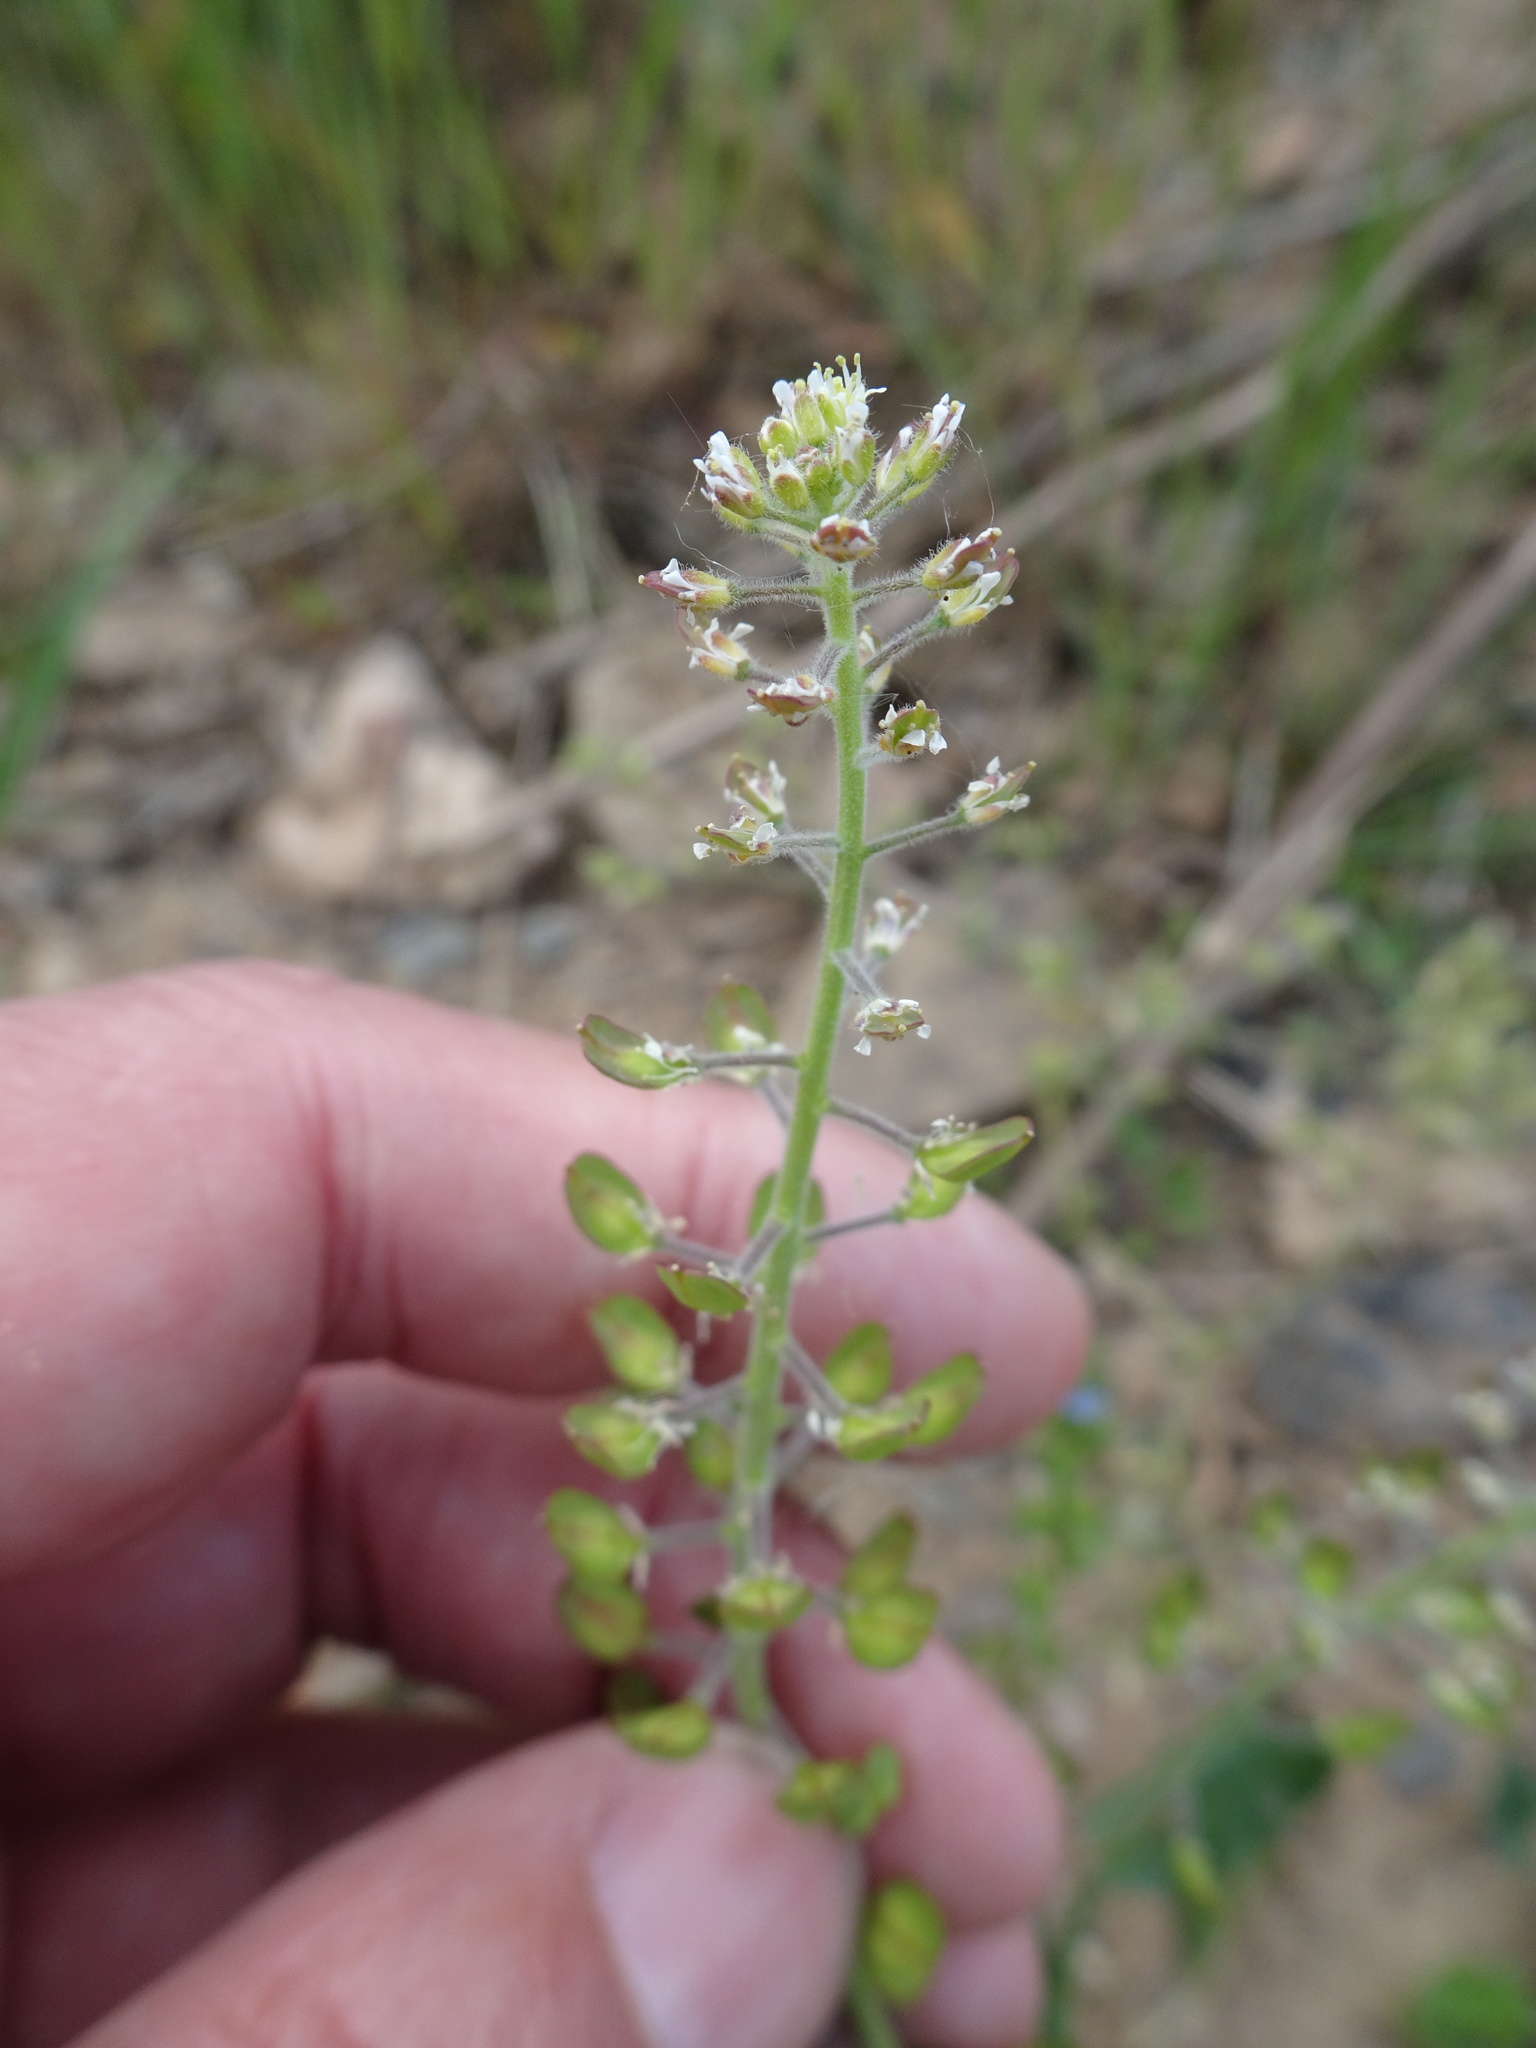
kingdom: Plantae
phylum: Tracheophyta
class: Magnoliopsida
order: Brassicales
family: Brassicaceae
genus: Lepidium
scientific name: Lepidium campestre
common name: Field pepperwort
